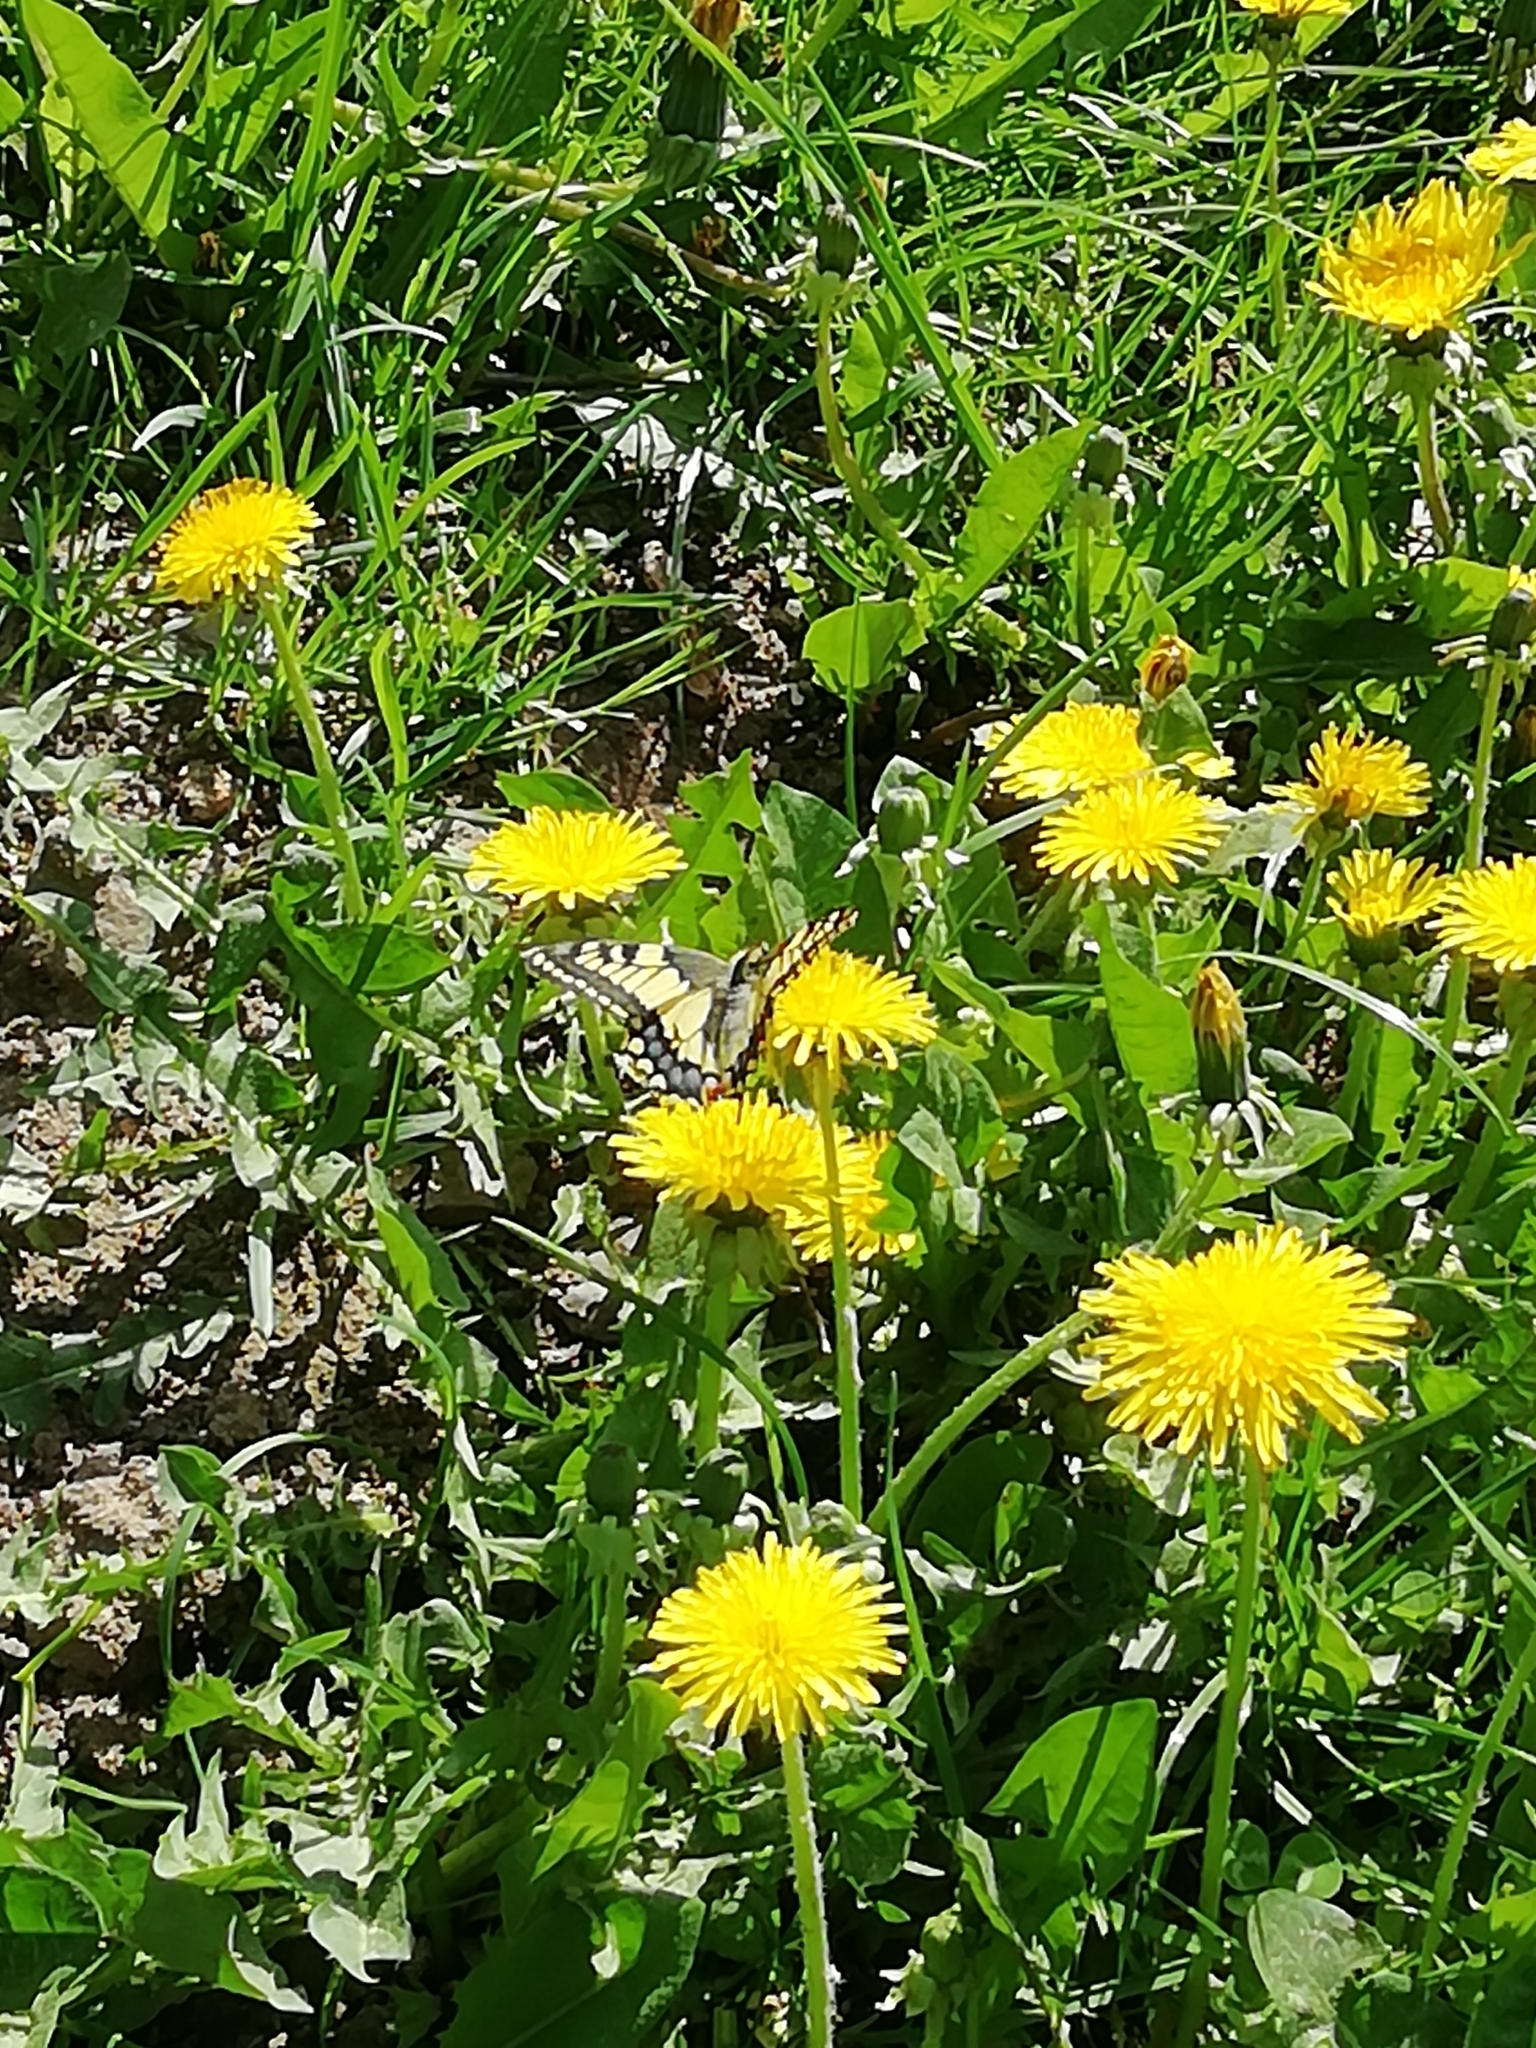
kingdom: Animalia
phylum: Arthropoda
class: Insecta
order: Lepidoptera
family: Papilionidae
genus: Papilio
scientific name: Papilio machaon
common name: Swallowtail
